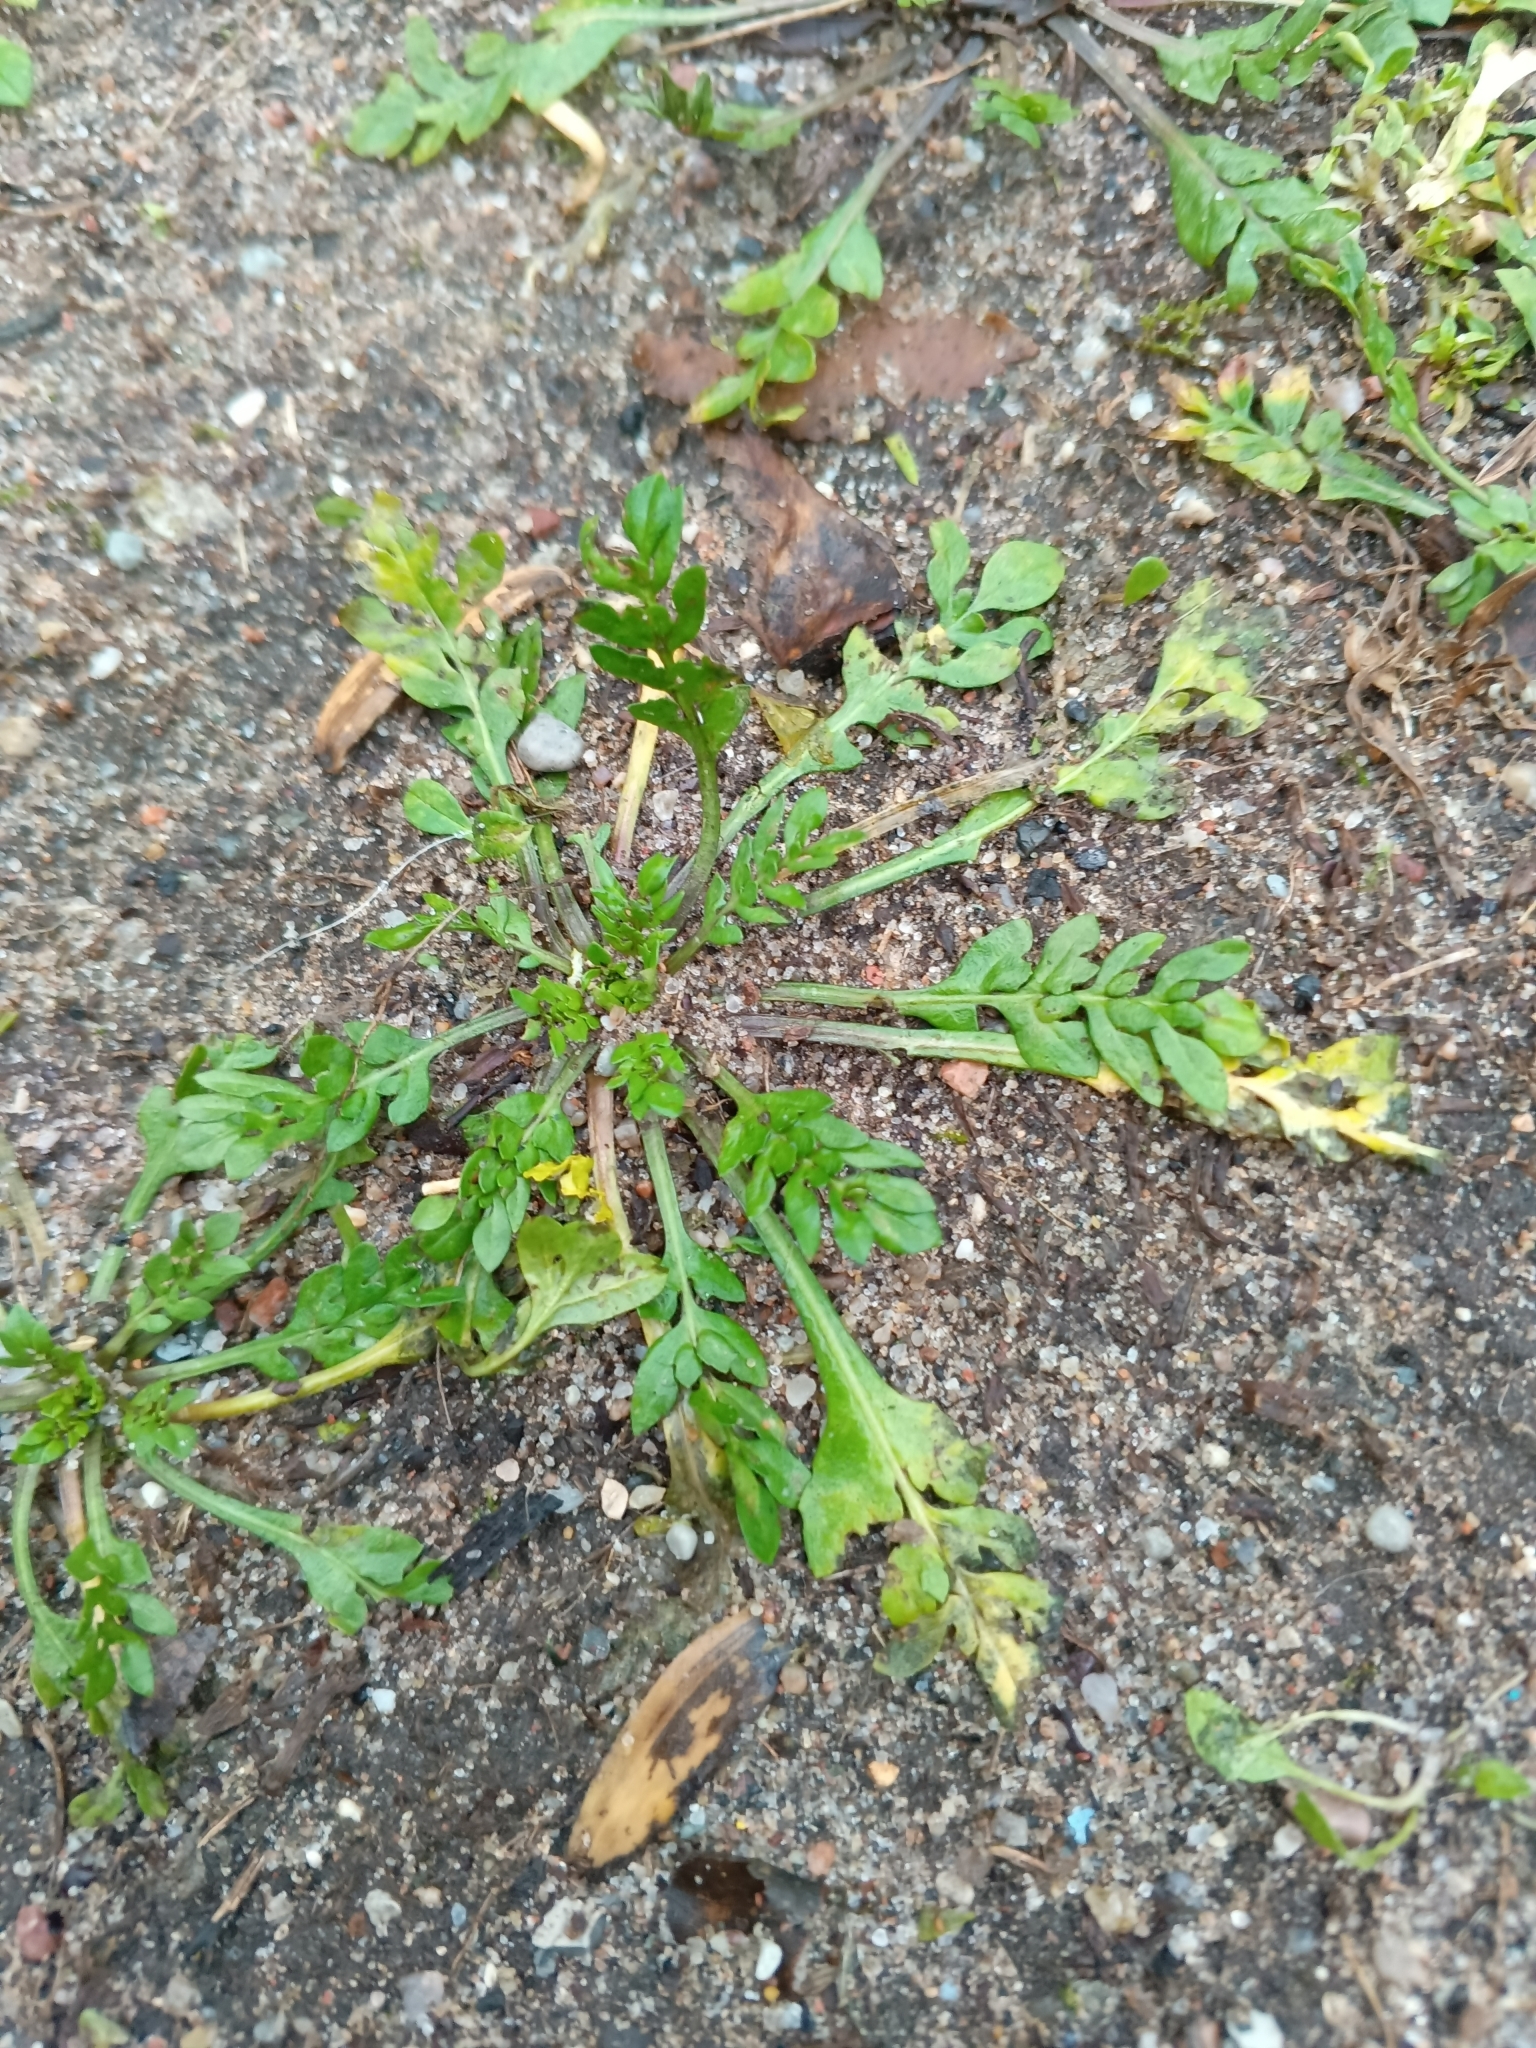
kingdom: Plantae
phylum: Tracheophyta
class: Magnoliopsida
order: Brassicales
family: Brassicaceae
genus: Capsella
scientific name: Capsella bursa-pastoris
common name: Shepherd's purse
